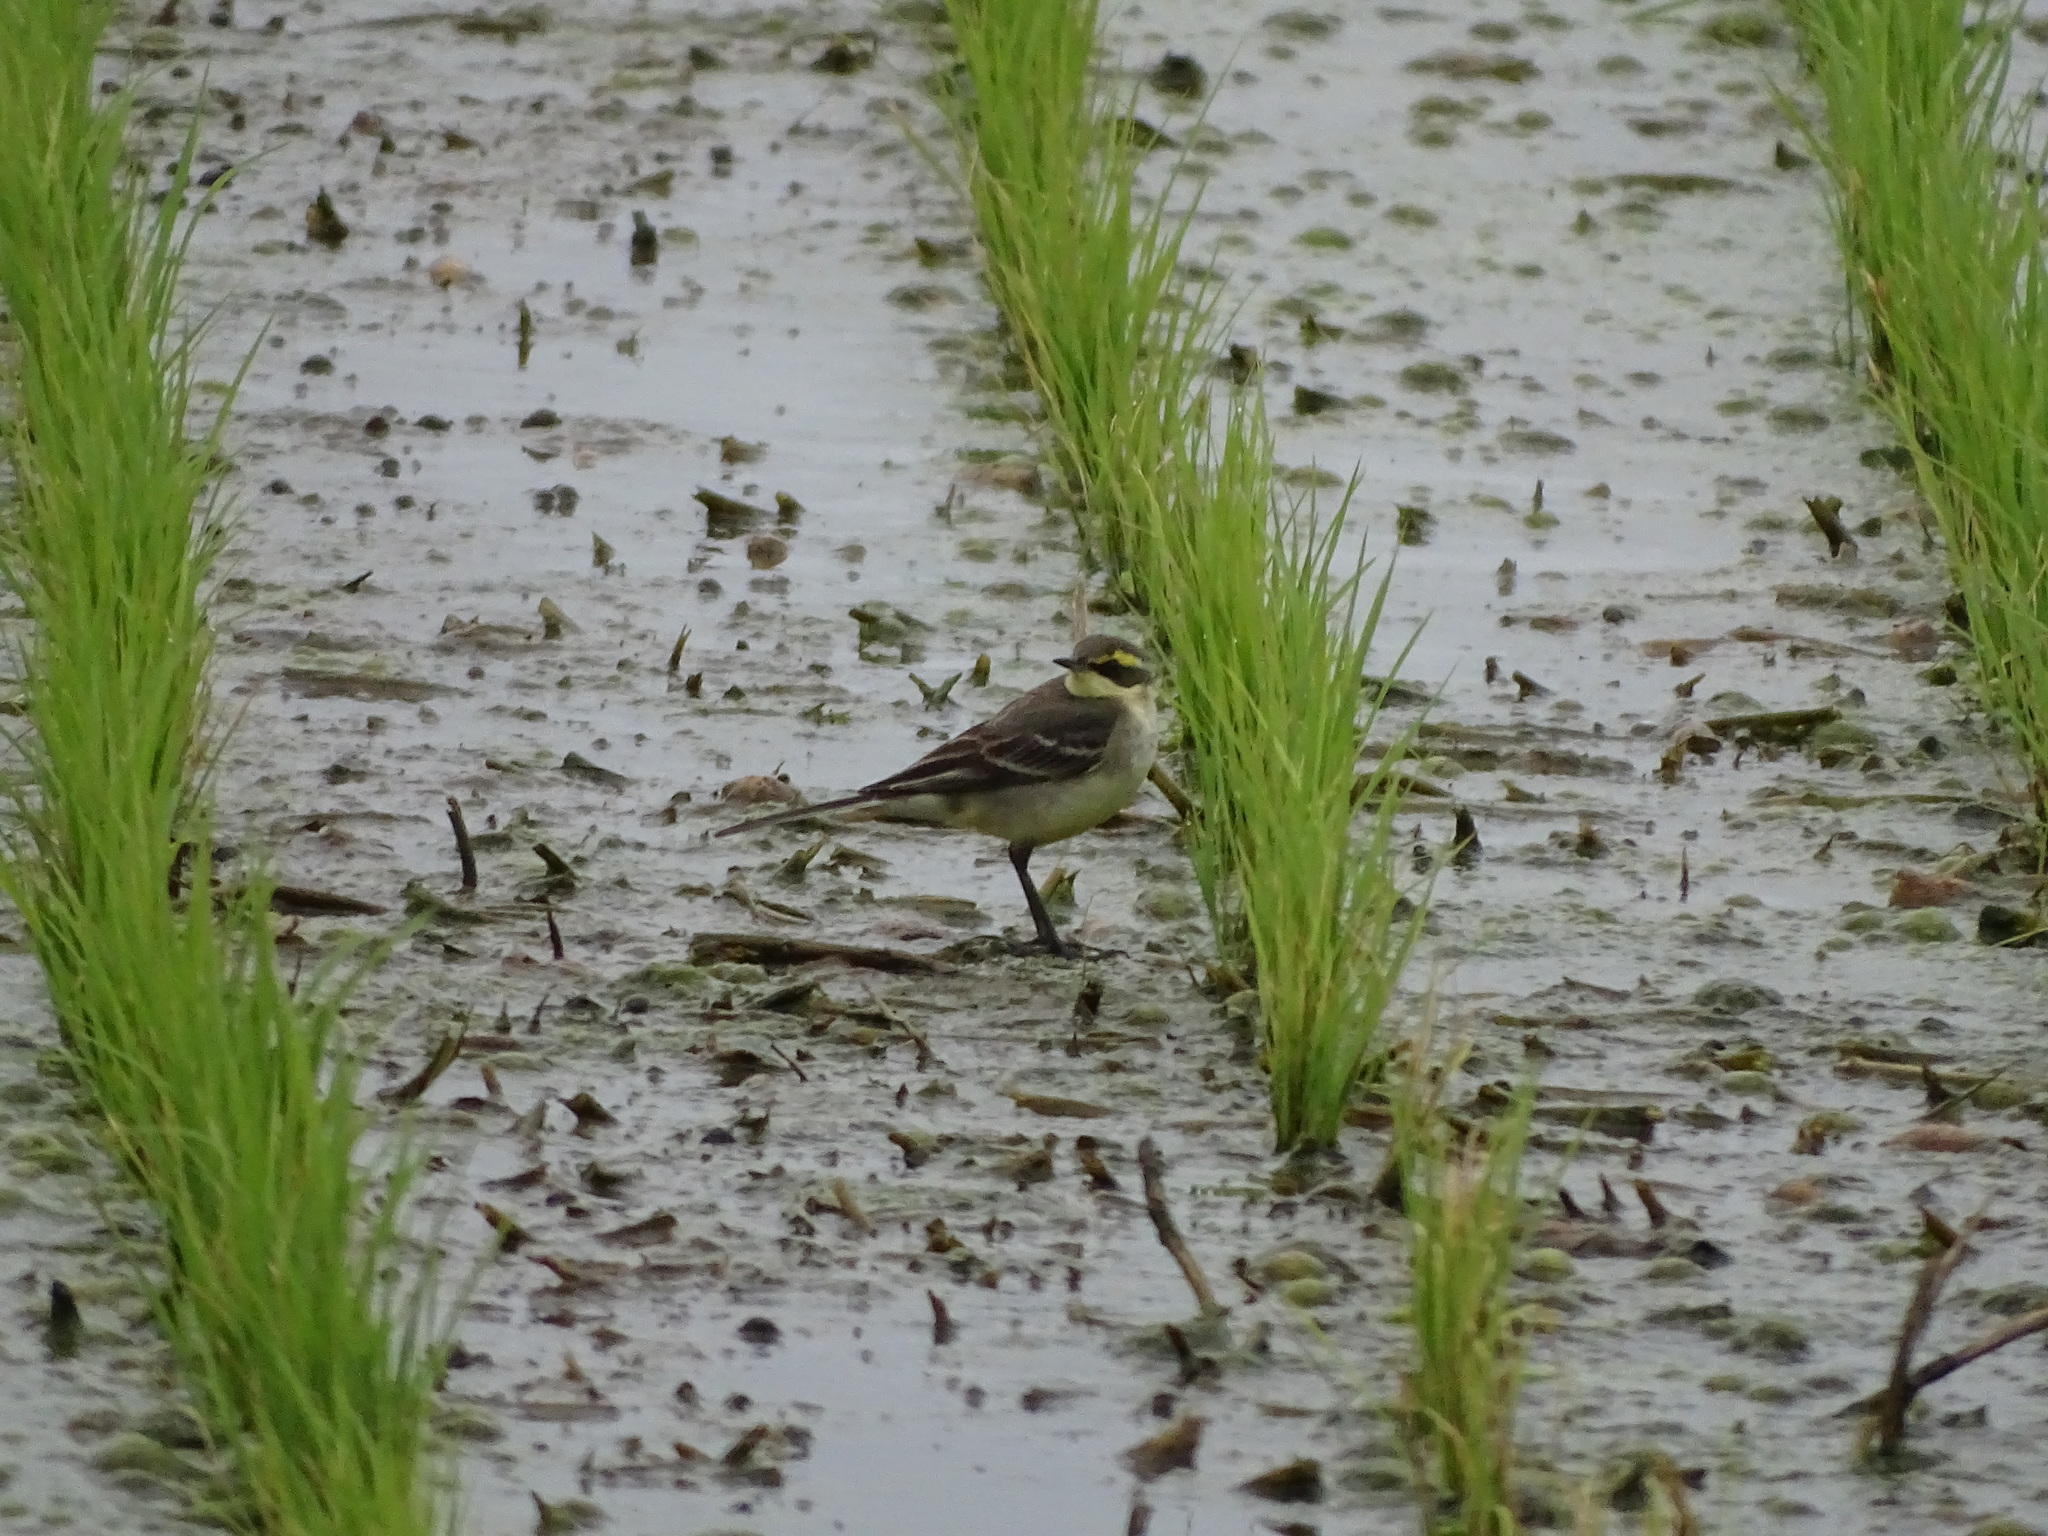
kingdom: Animalia
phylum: Chordata
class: Aves
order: Passeriformes
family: Motacillidae
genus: Motacilla
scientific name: Motacilla tschutschensis
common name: Eastern yellow wagtail
